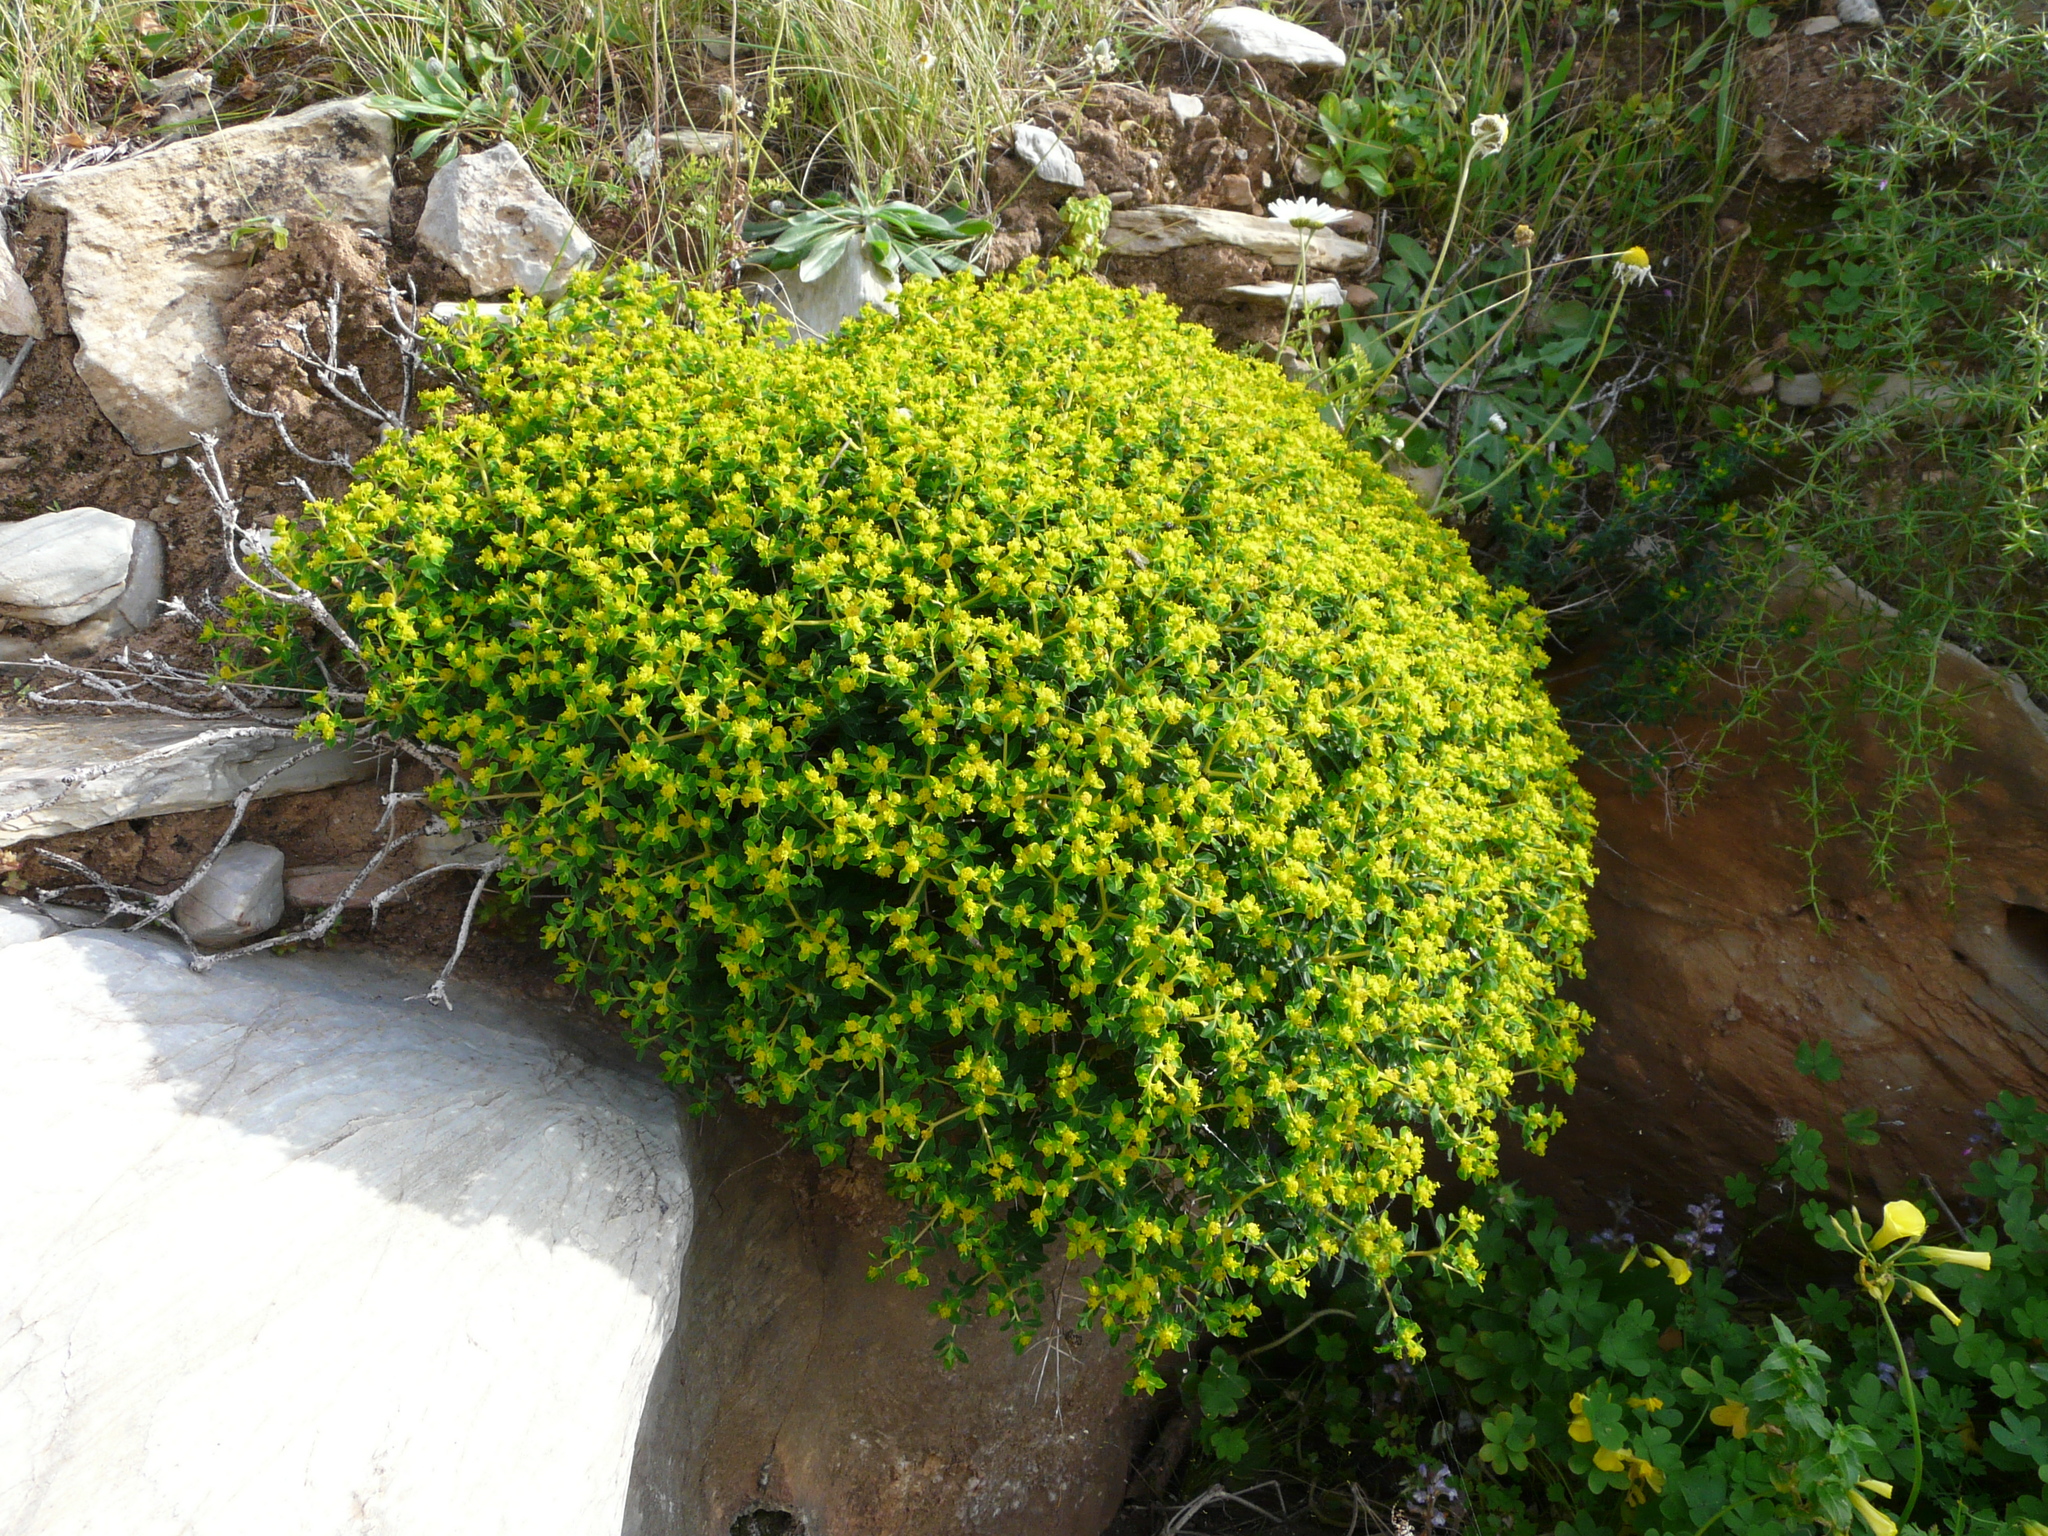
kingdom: Plantae
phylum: Tracheophyta
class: Magnoliopsida
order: Malpighiales
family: Euphorbiaceae
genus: Euphorbia
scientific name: Euphorbia acanthothamnos
